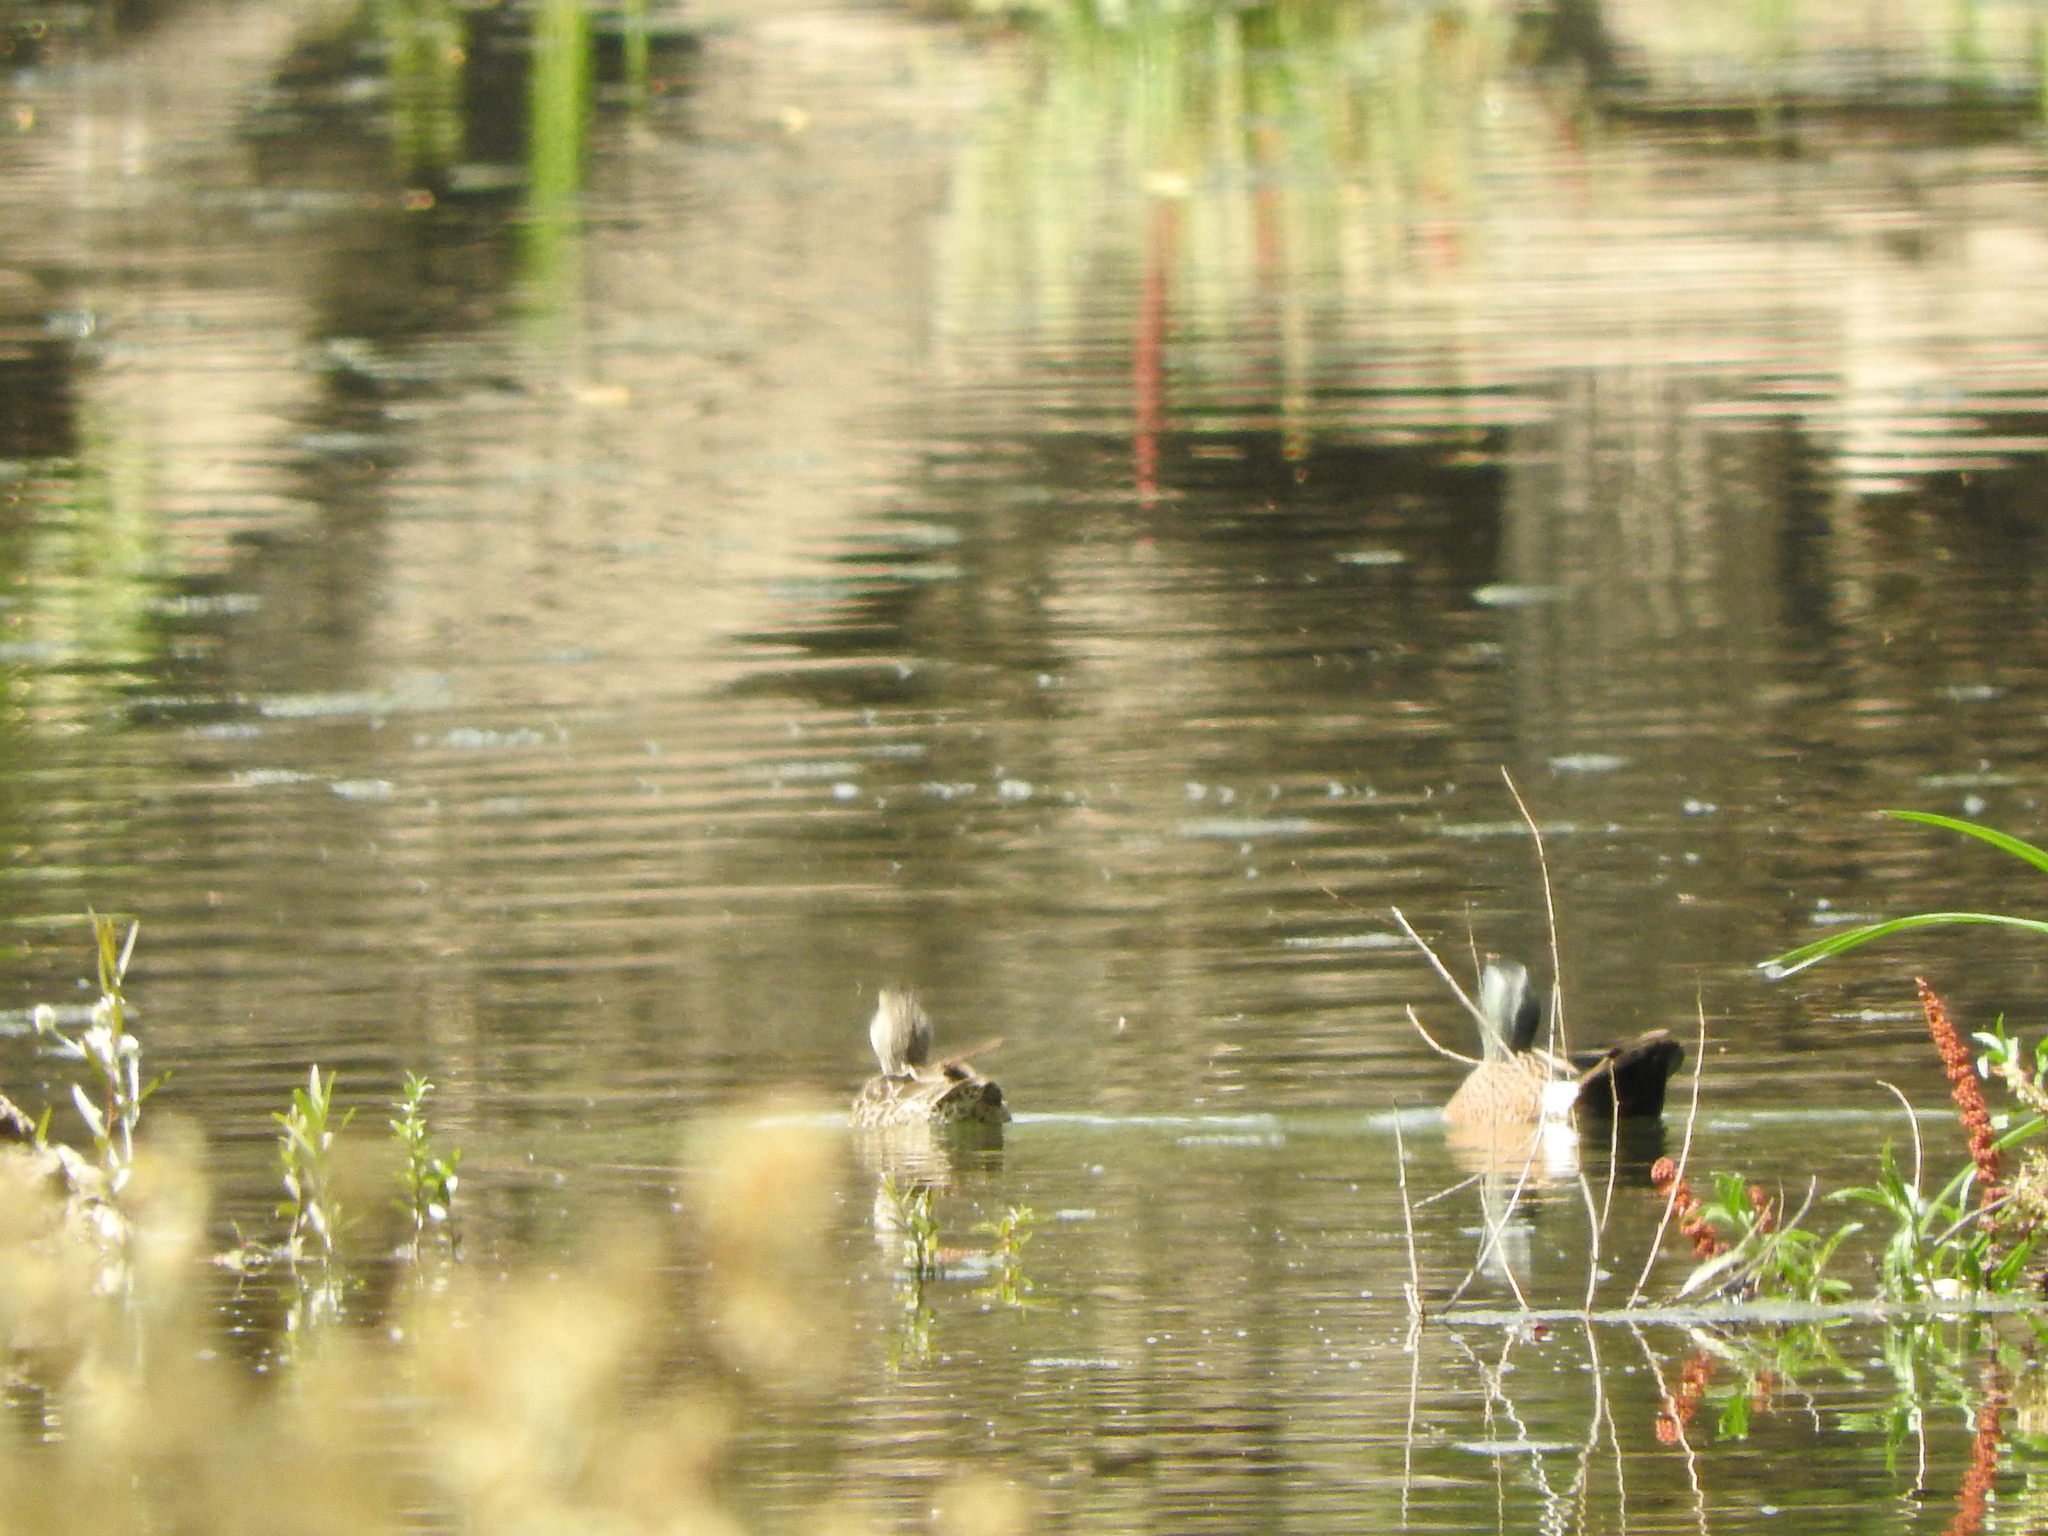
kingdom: Animalia
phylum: Chordata
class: Aves
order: Anseriformes
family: Anatidae
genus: Spatula
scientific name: Spatula discors
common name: Blue-winged teal
